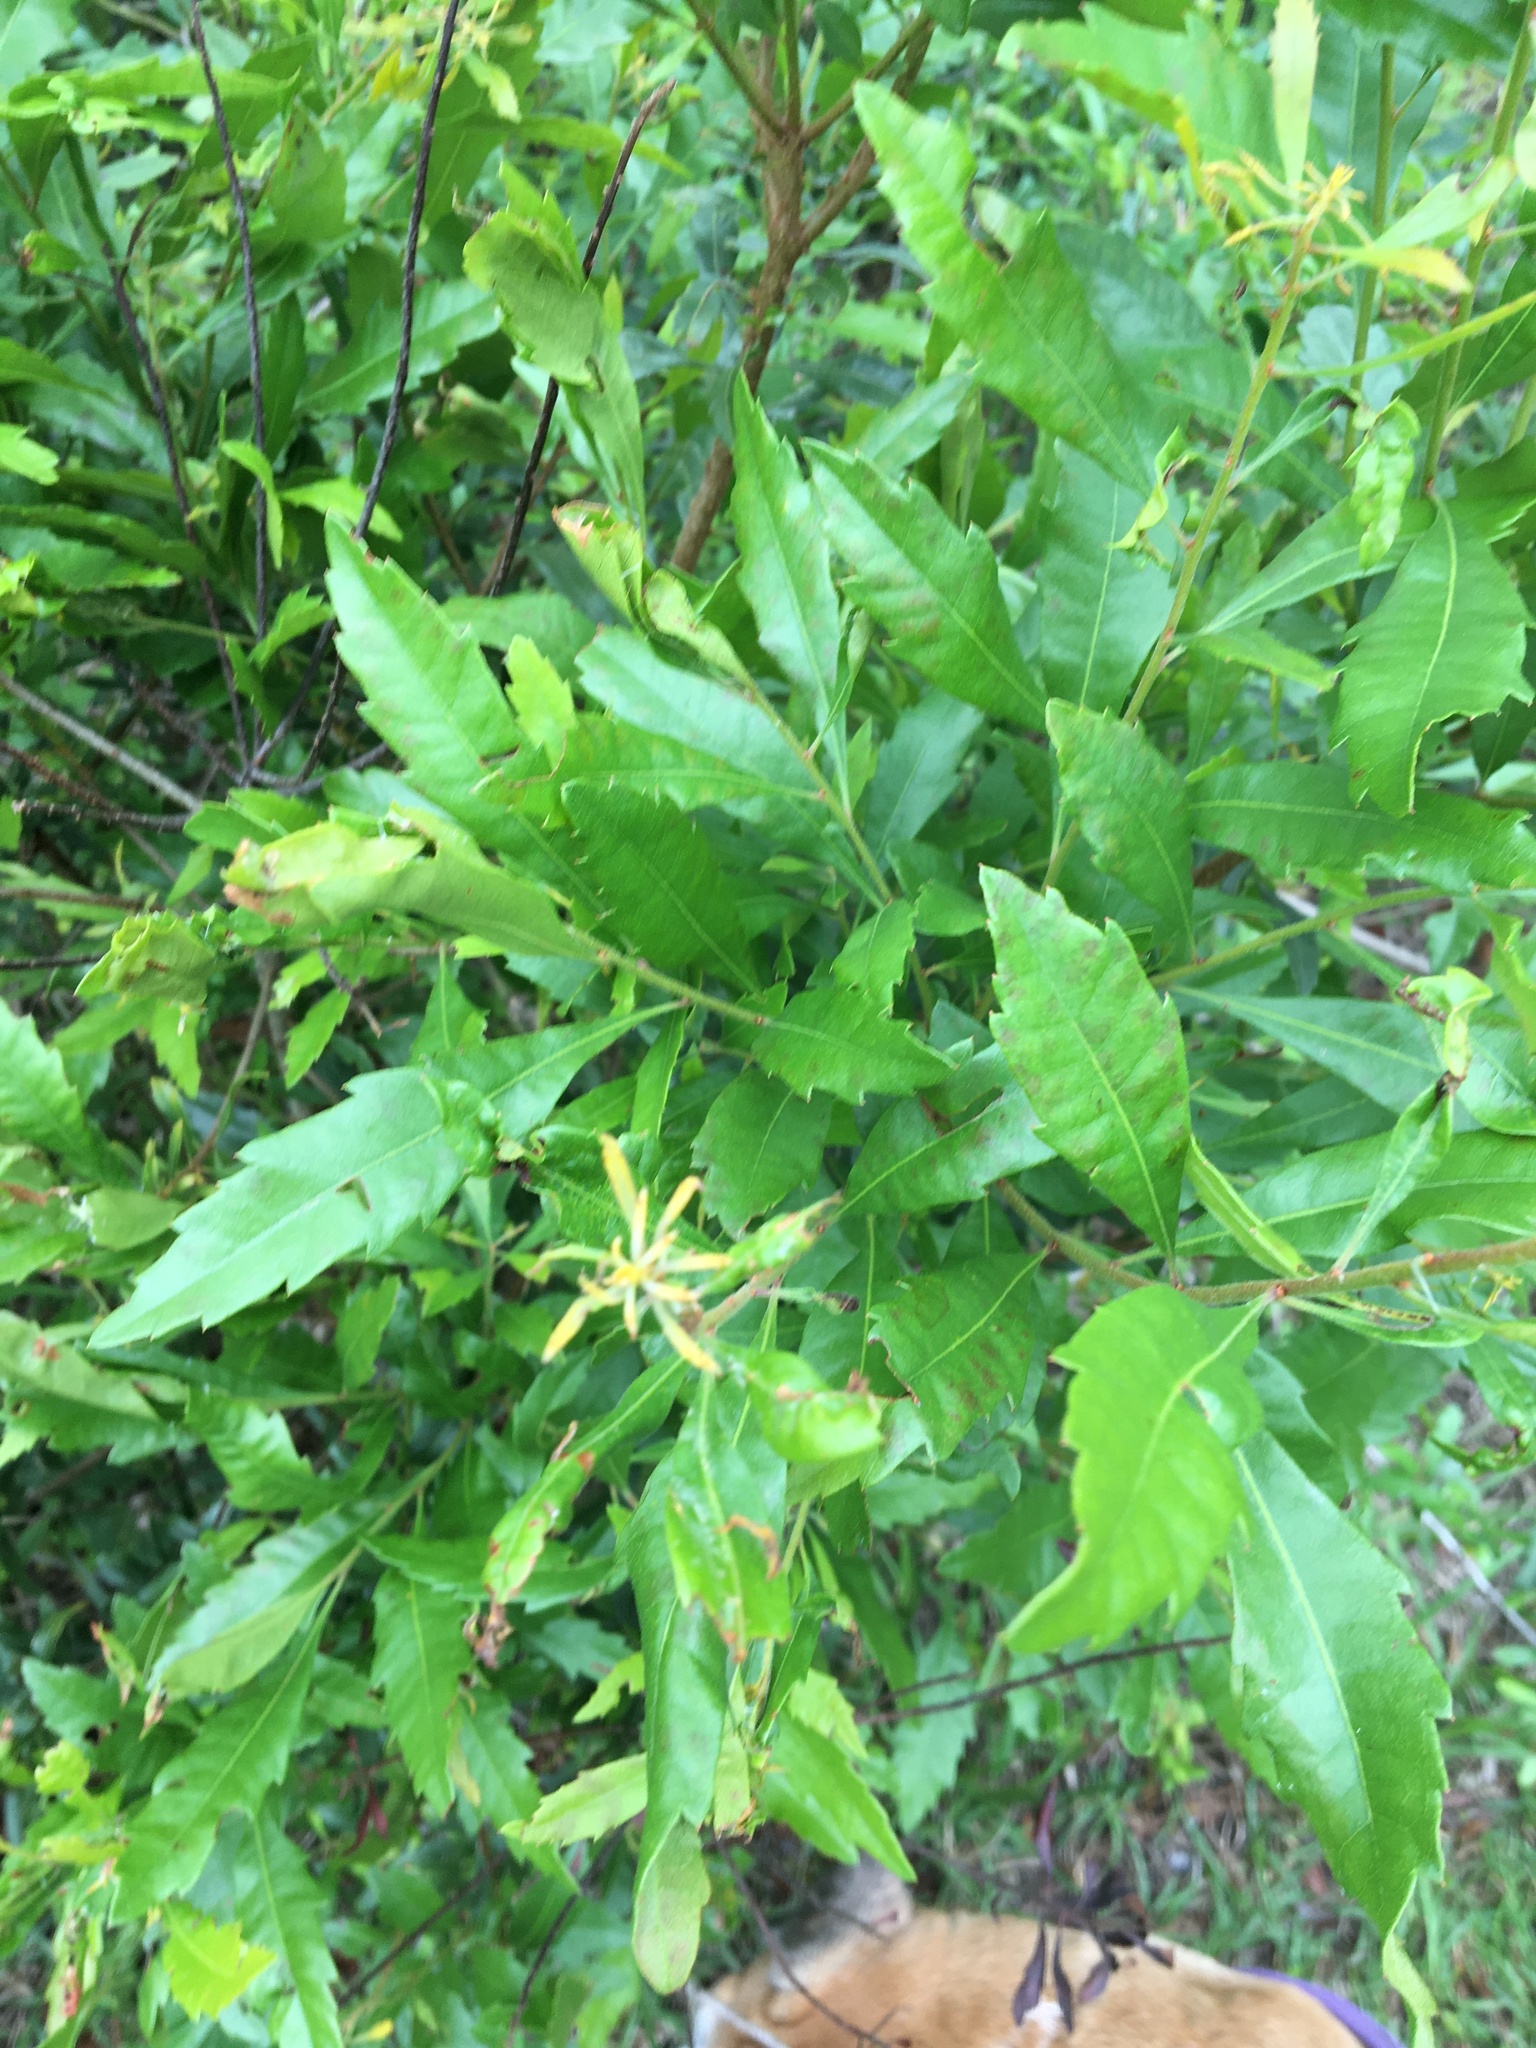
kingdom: Plantae
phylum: Tracheophyta
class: Magnoliopsida
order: Fagales
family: Myricaceae
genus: Morella
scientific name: Morella cerifera
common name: Wax myrtle
